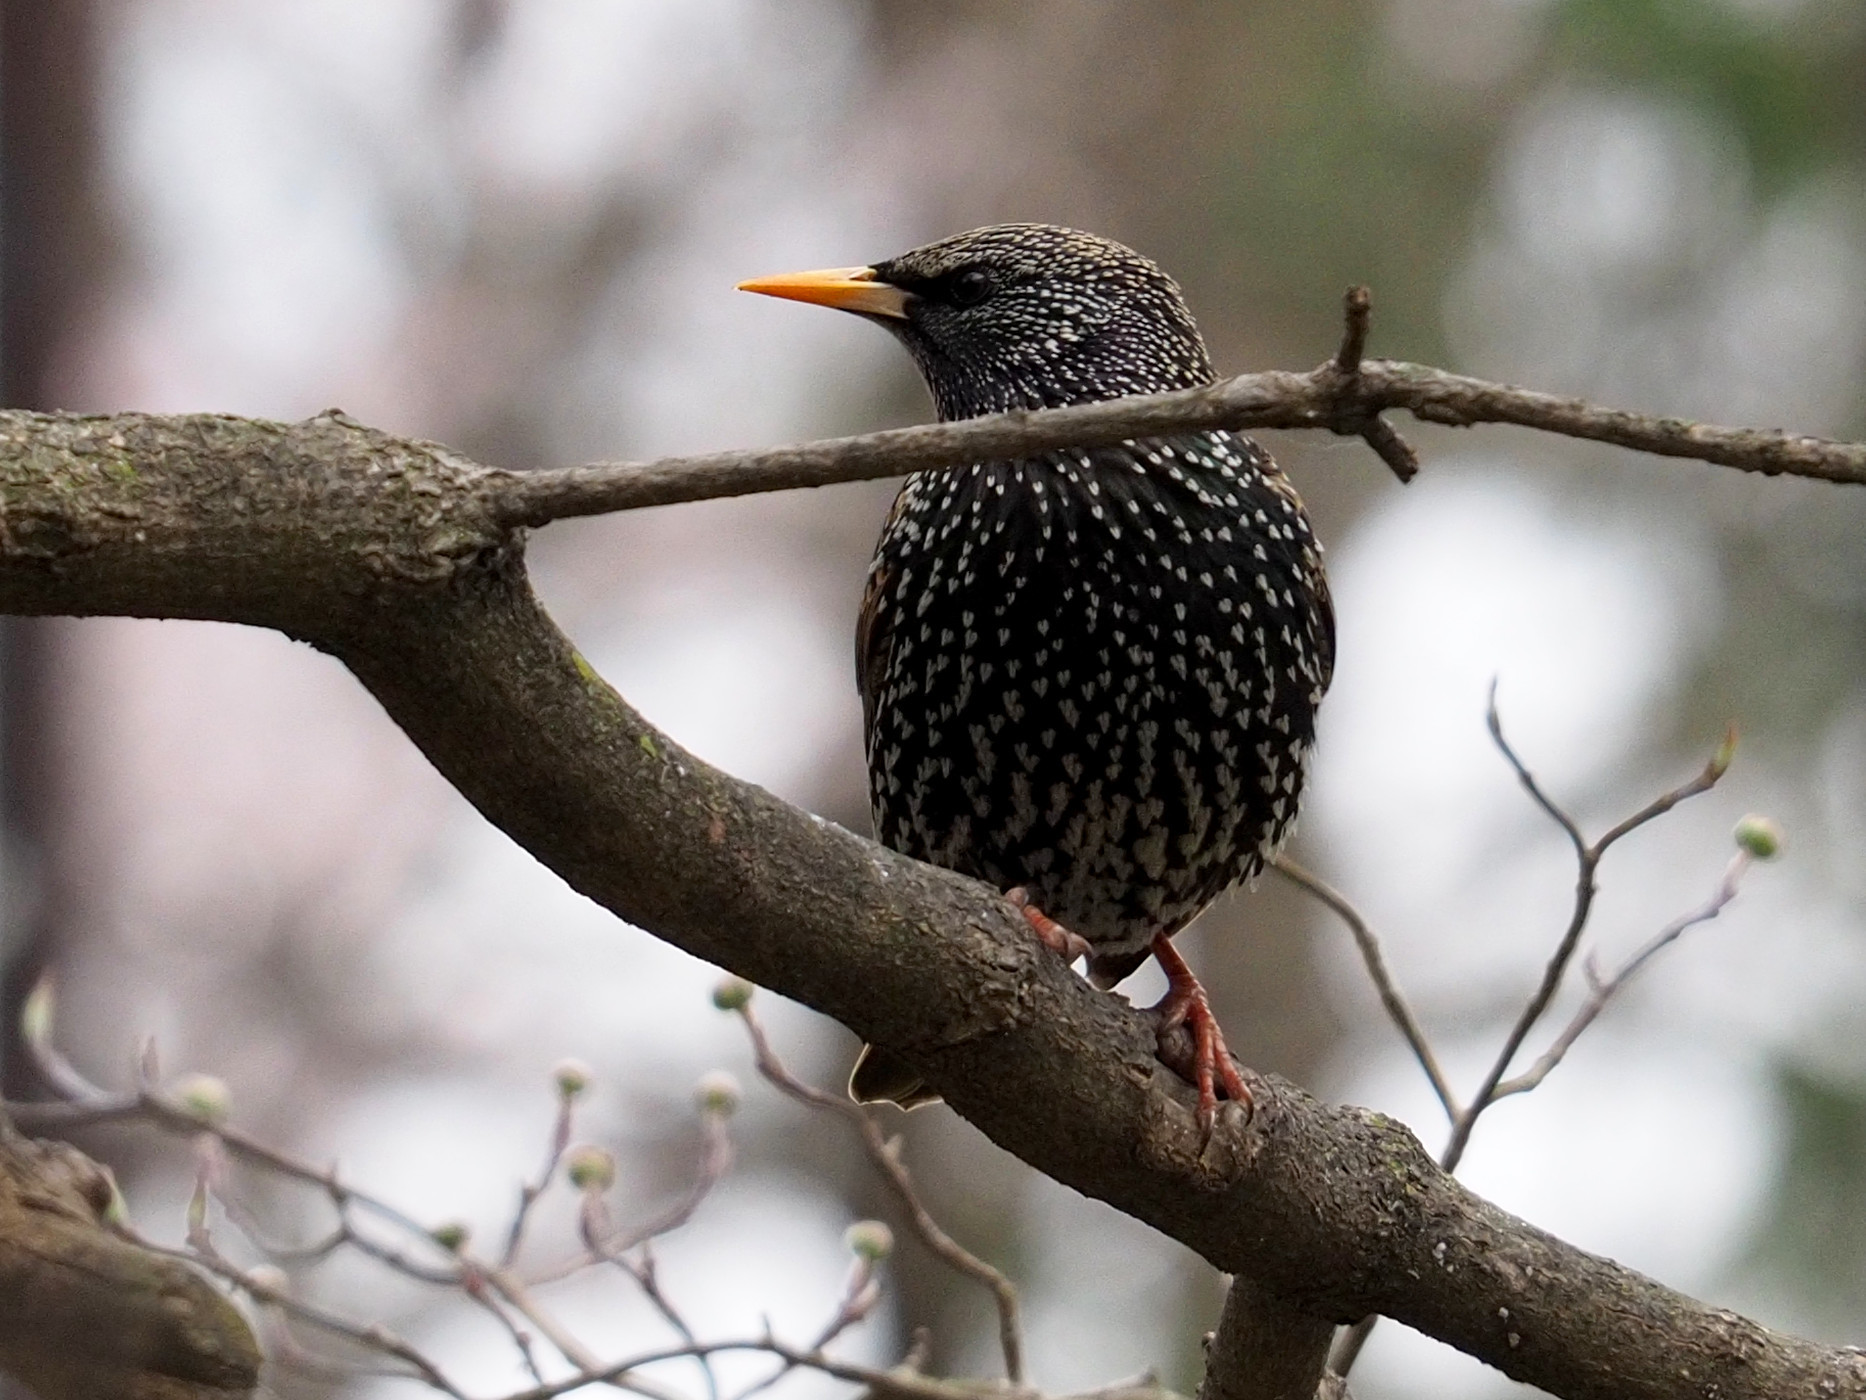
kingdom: Animalia
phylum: Chordata
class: Aves
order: Passeriformes
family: Sturnidae
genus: Sturnus
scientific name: Sturnus vulgaris
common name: Common starling
